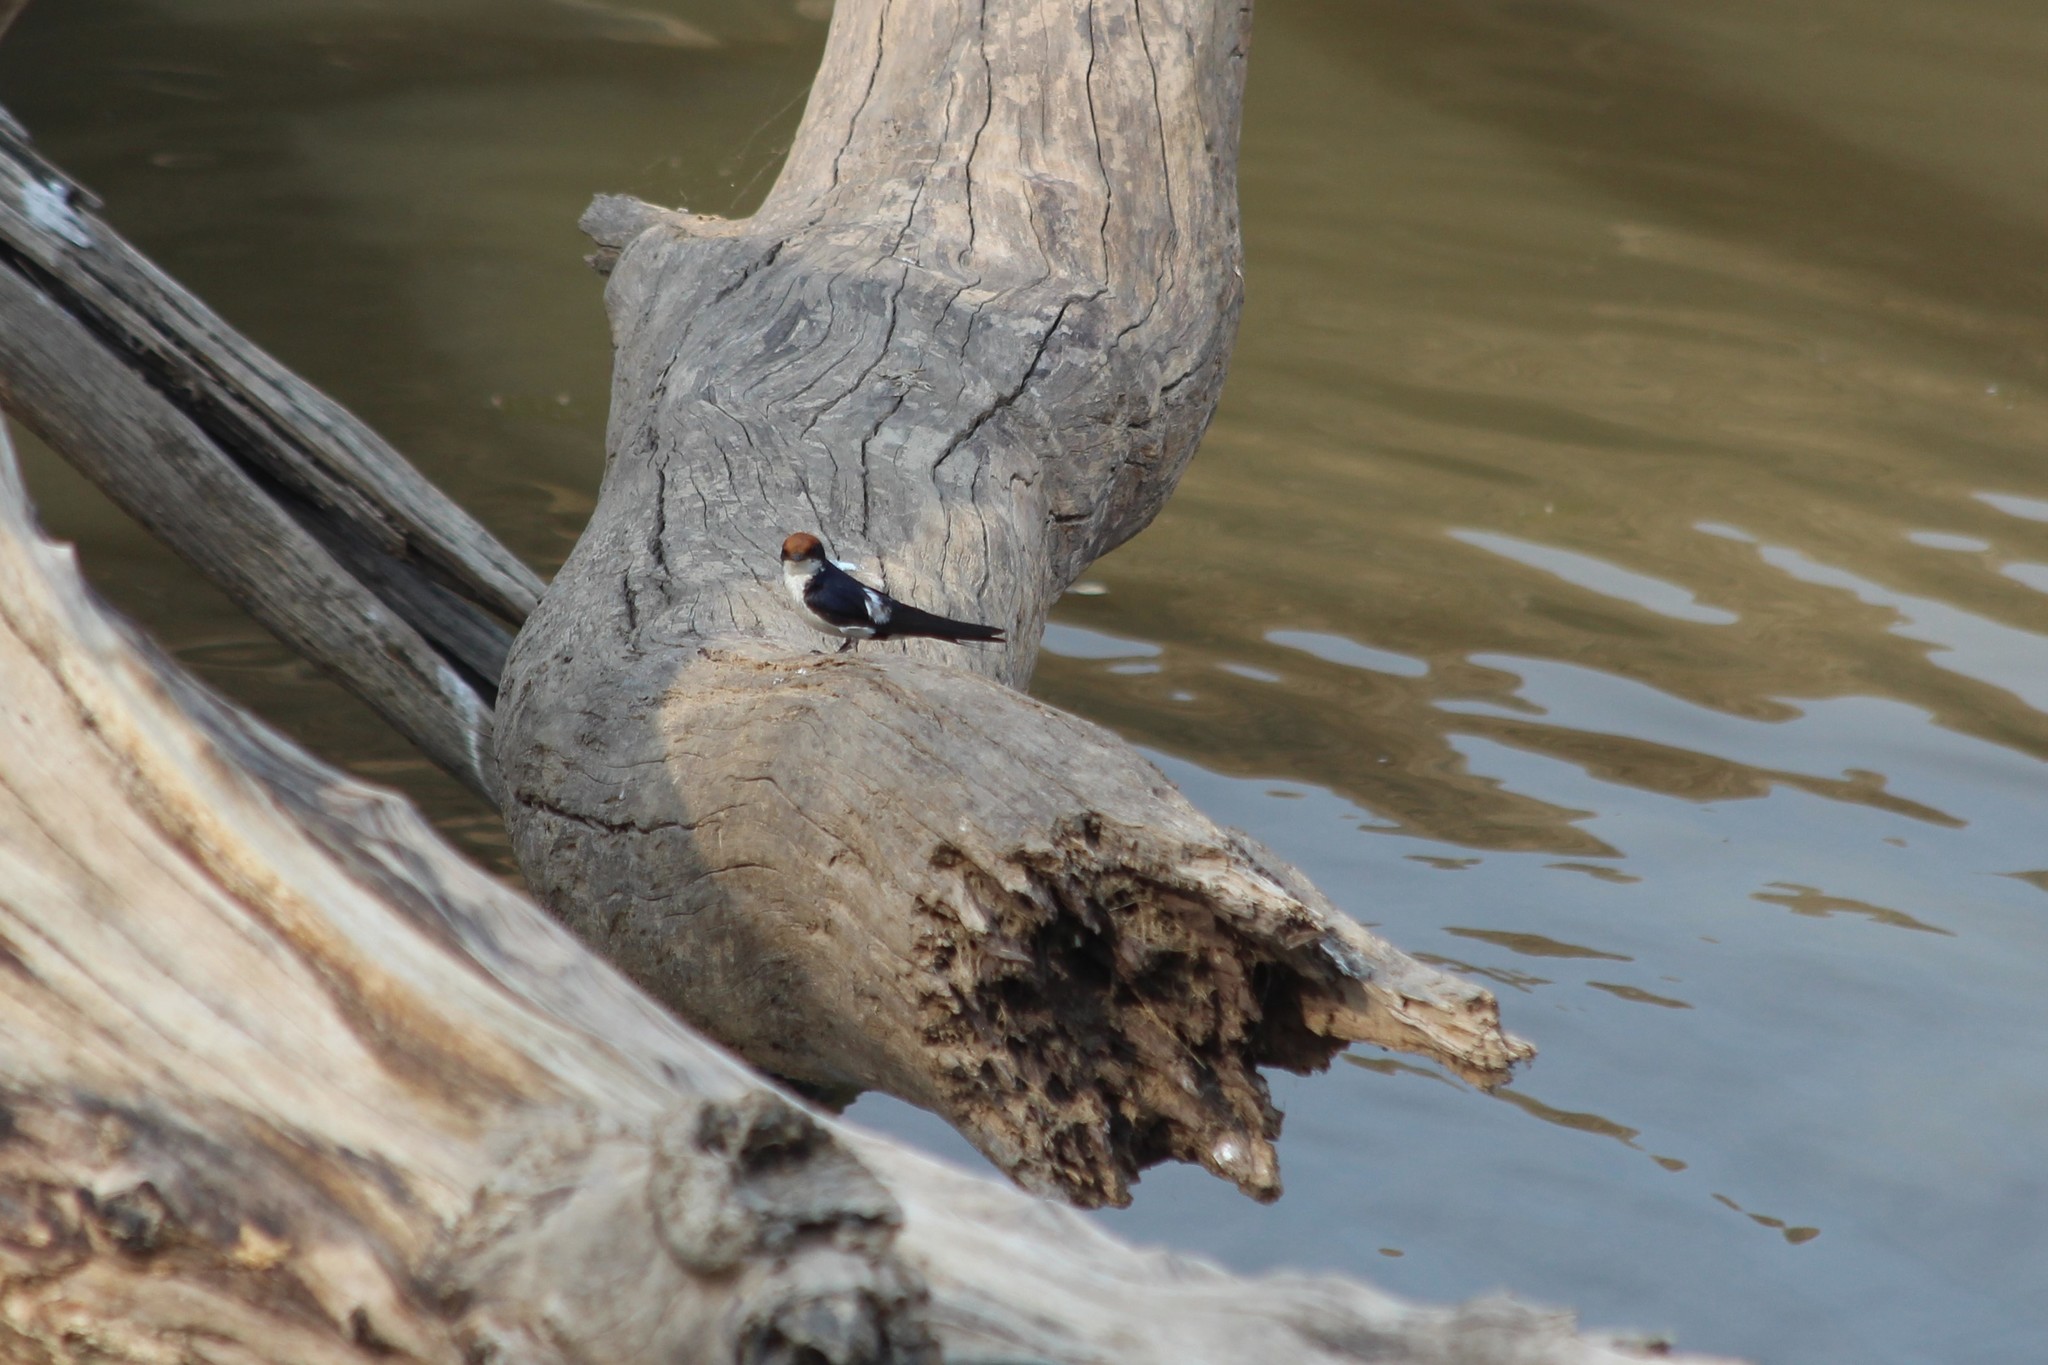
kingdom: Animalia
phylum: Chordata
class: Aves
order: Passeriformes
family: Hirundinidae
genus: Hirundo
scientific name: Hirundo smithii
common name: Wire-tailed swallow
